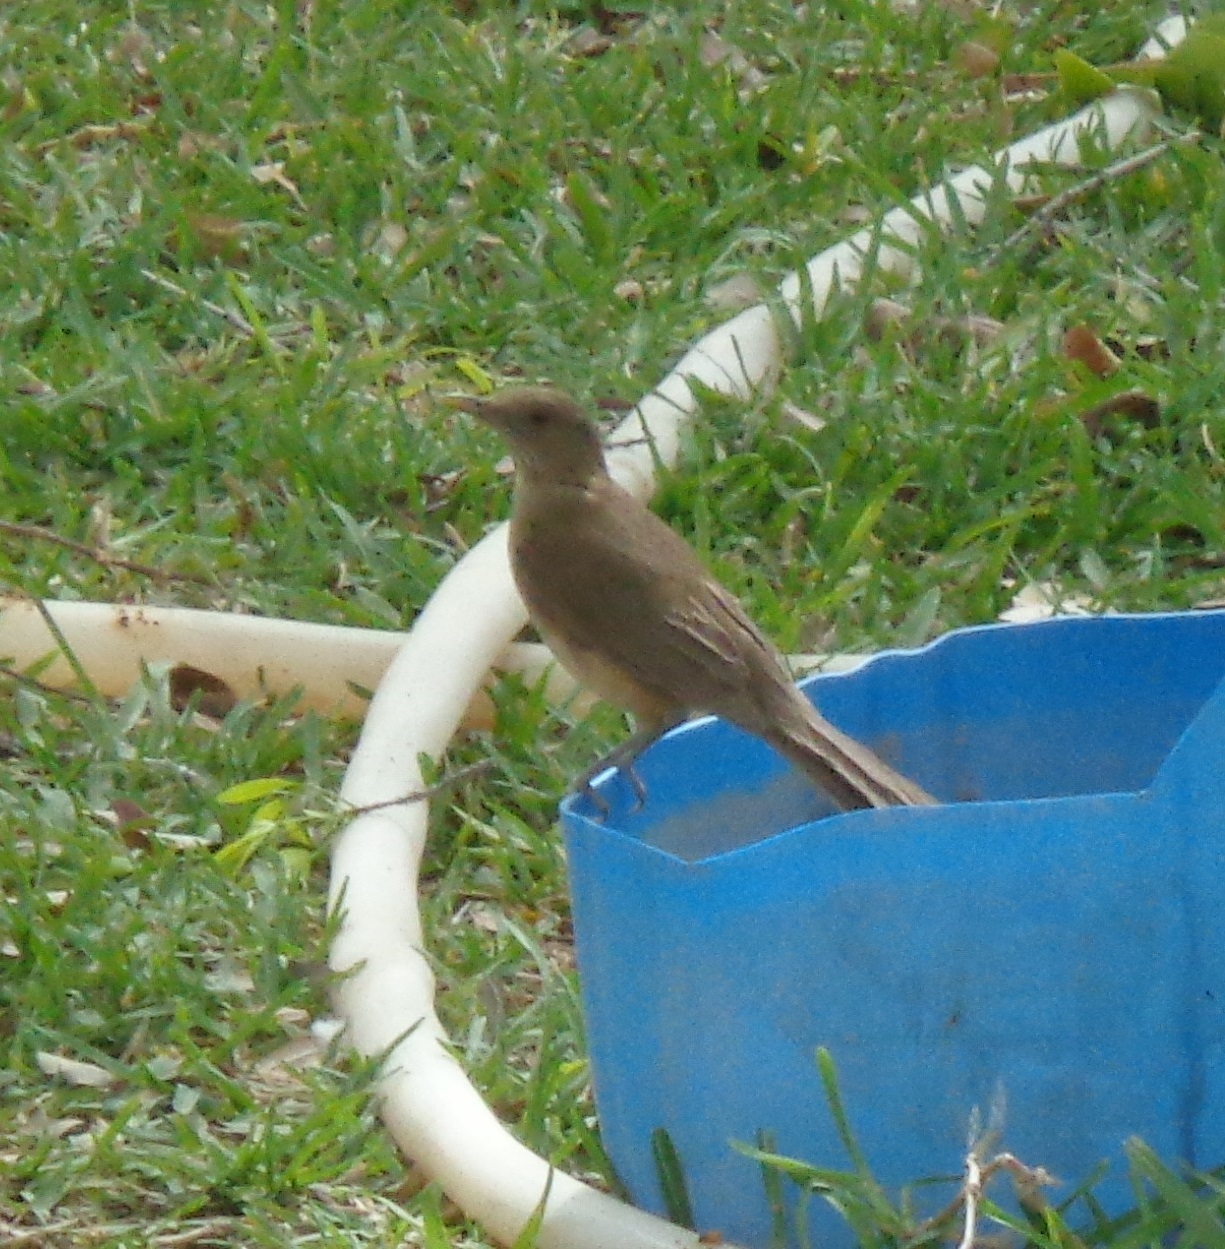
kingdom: Animalia
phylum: Chordata
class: Aves
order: Passeriformes
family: Turdidae
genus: Turdus
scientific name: Turdus grayi
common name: Clay-colored thrush
